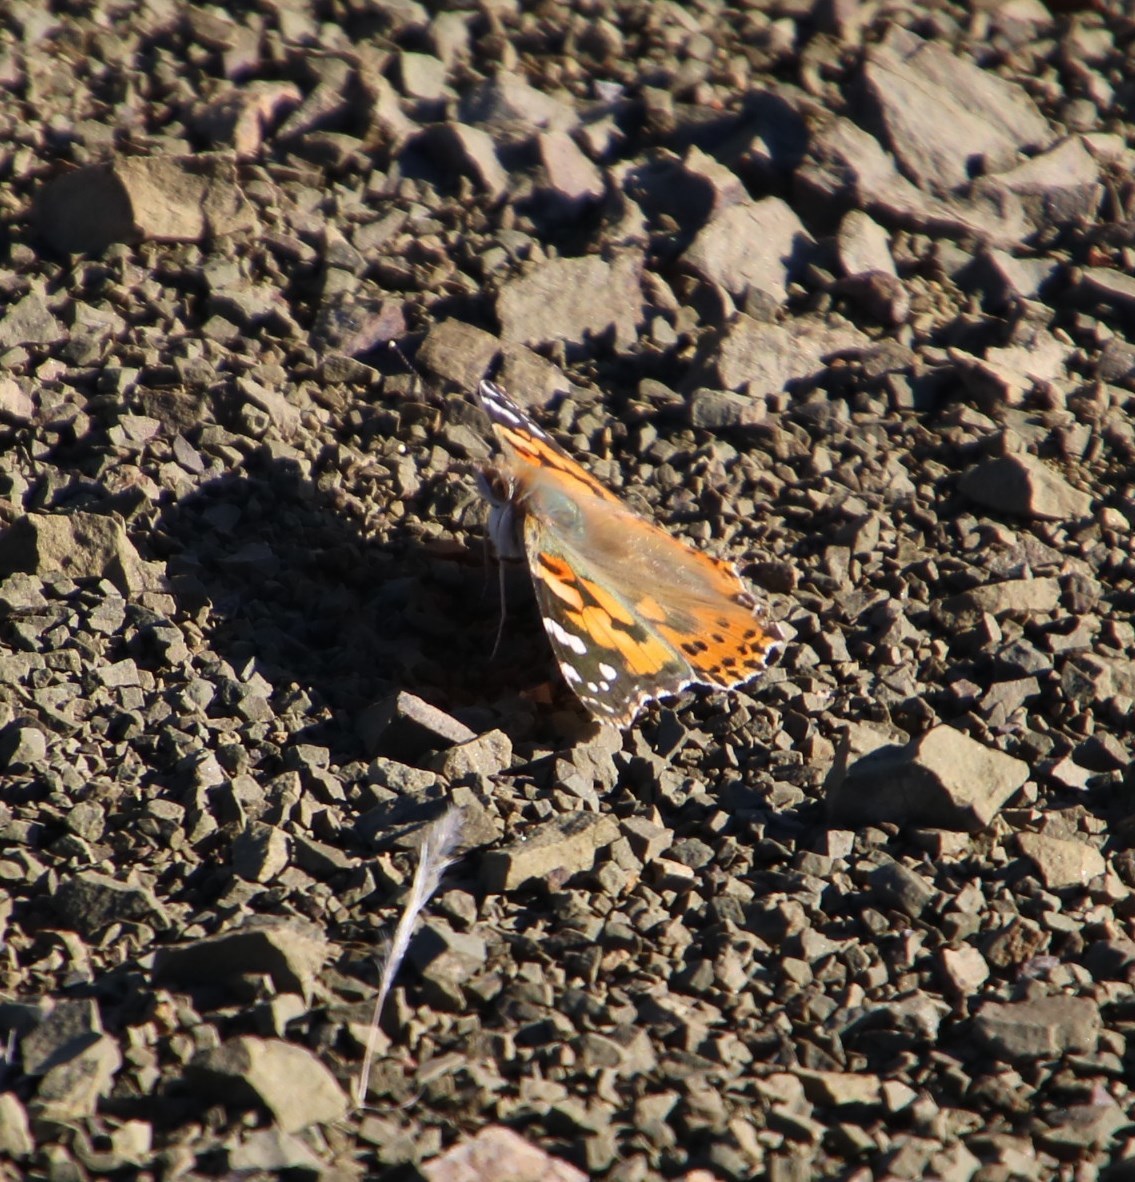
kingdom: Animalia
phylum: Arthropoda
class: Insecta
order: Lepidoptera
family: Nymphalidae
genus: Vanessa
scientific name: Vanessa cardui
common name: Painted lady
